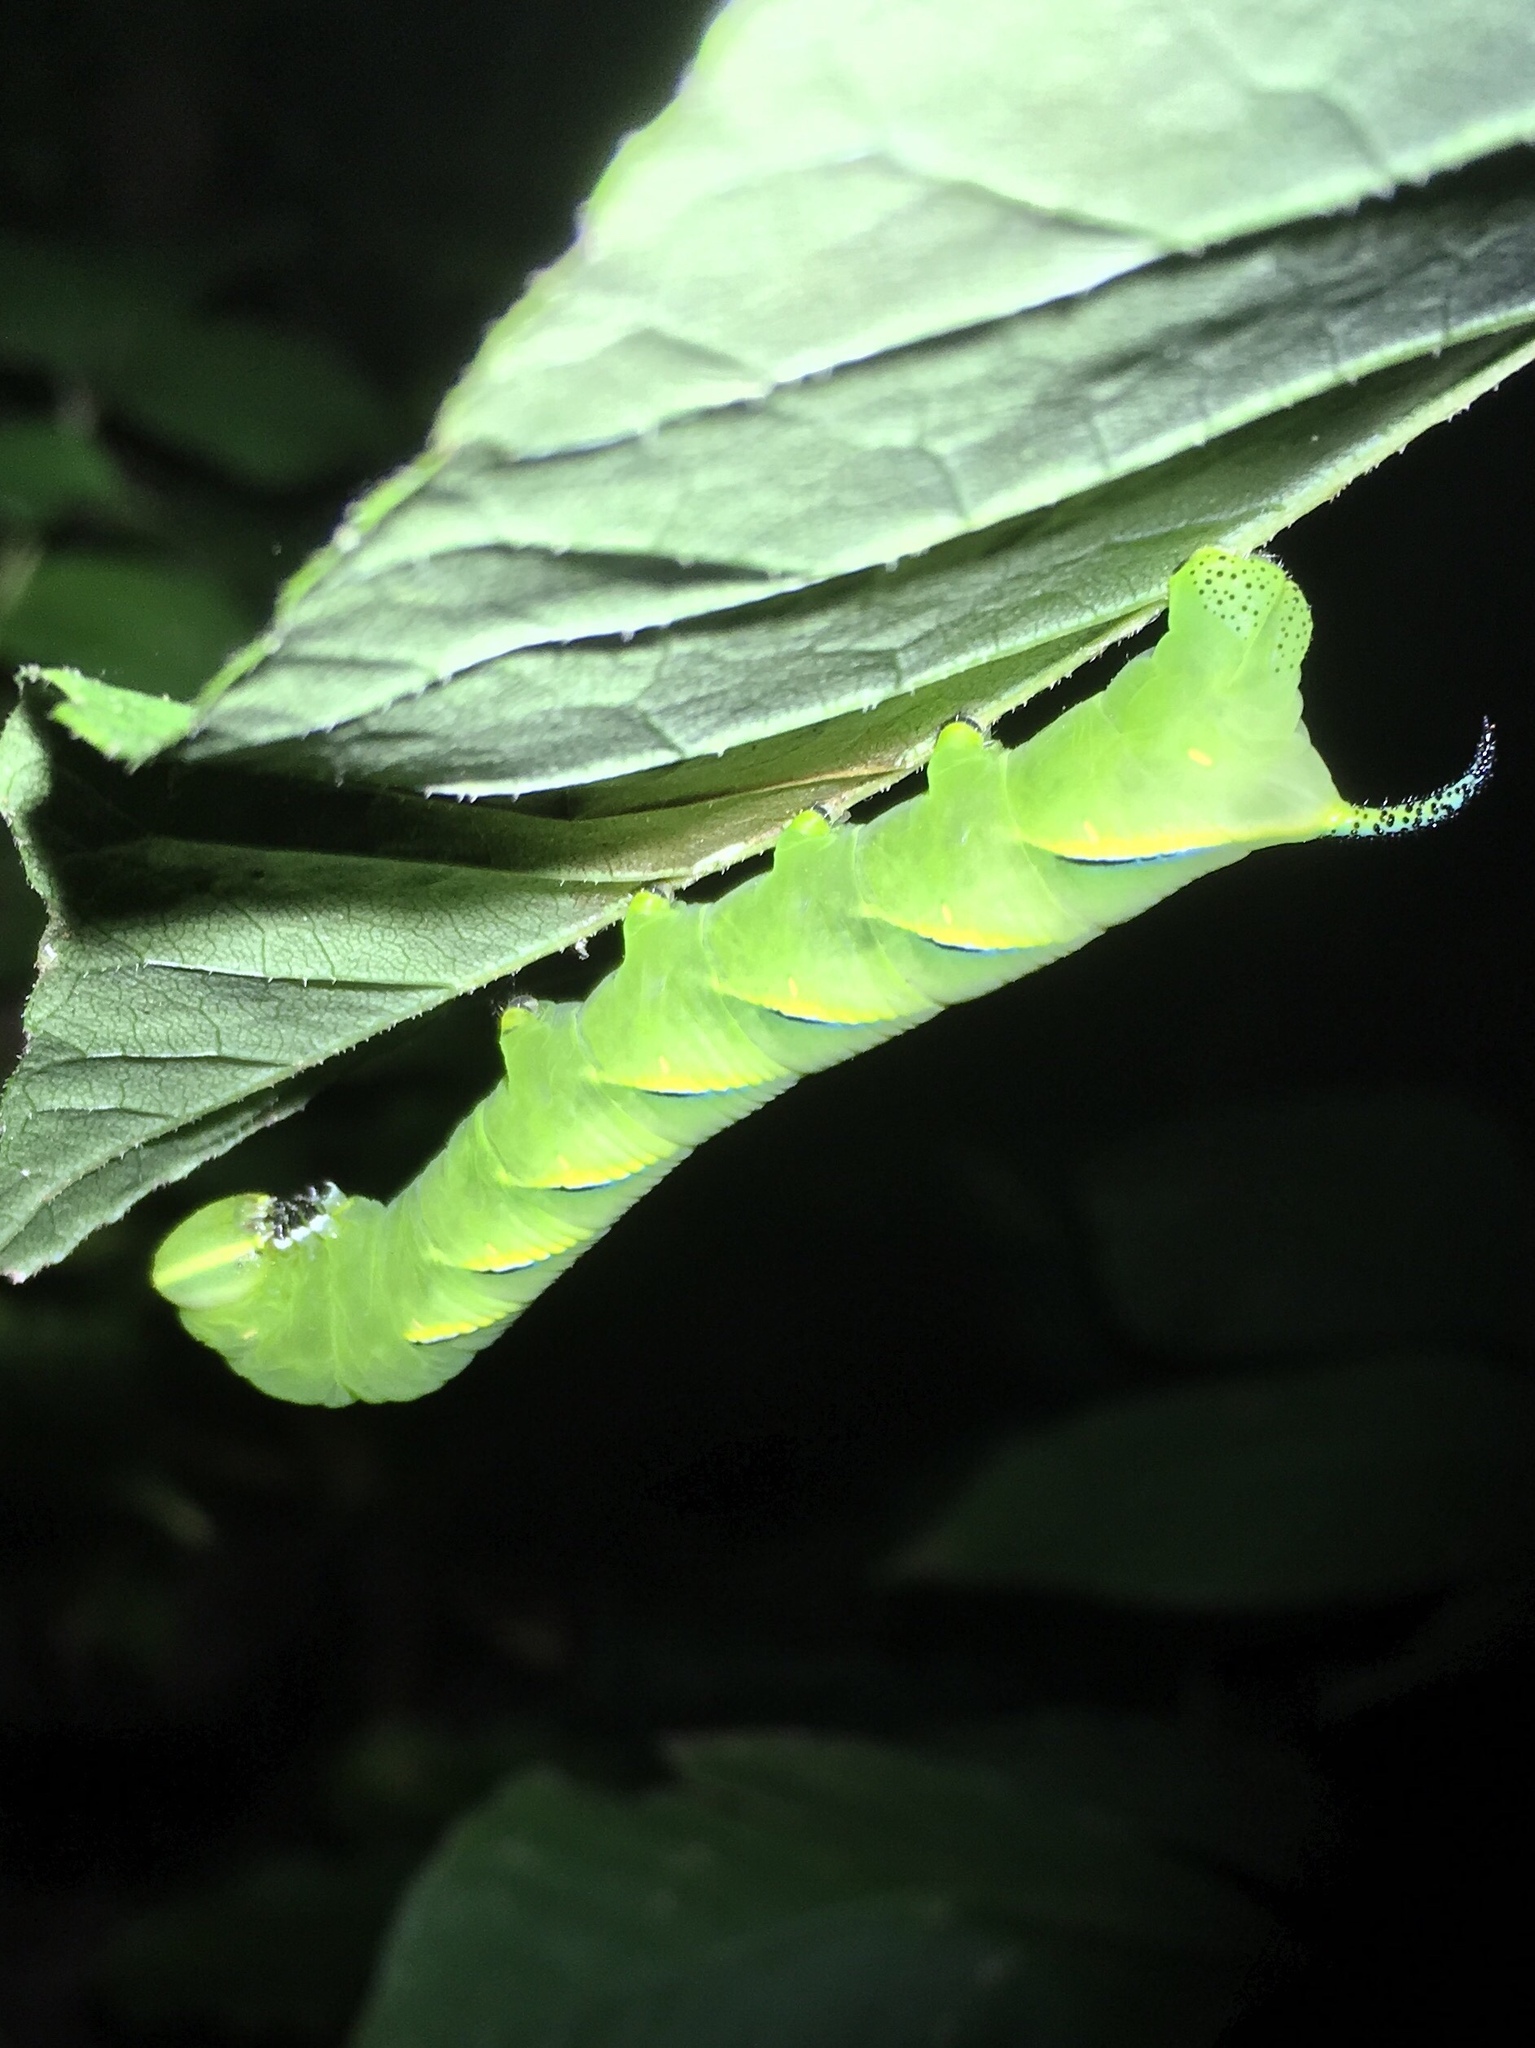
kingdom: Animalia
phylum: Arthropoda
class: Insecta
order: Lepidoptera
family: Sphingidae
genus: Sphinx
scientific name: Sphinx kalmiae
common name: Laurel sphinx
